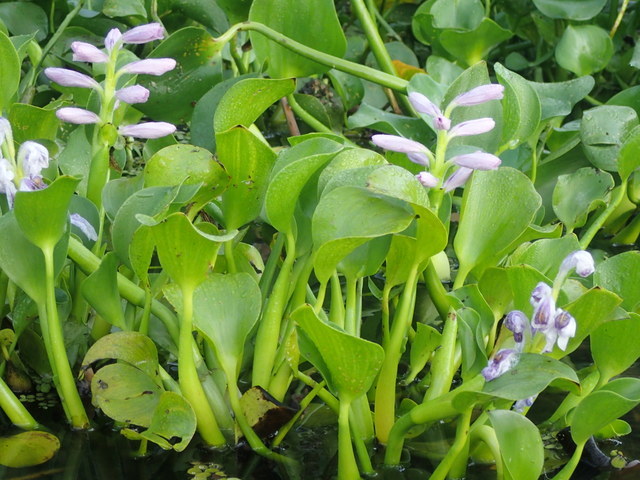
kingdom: Plantae
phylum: Tracheophyta
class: Liliopsida
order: Commelinales
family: Pontederiaceae
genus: Pontederia
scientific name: Pontederia crassipes
